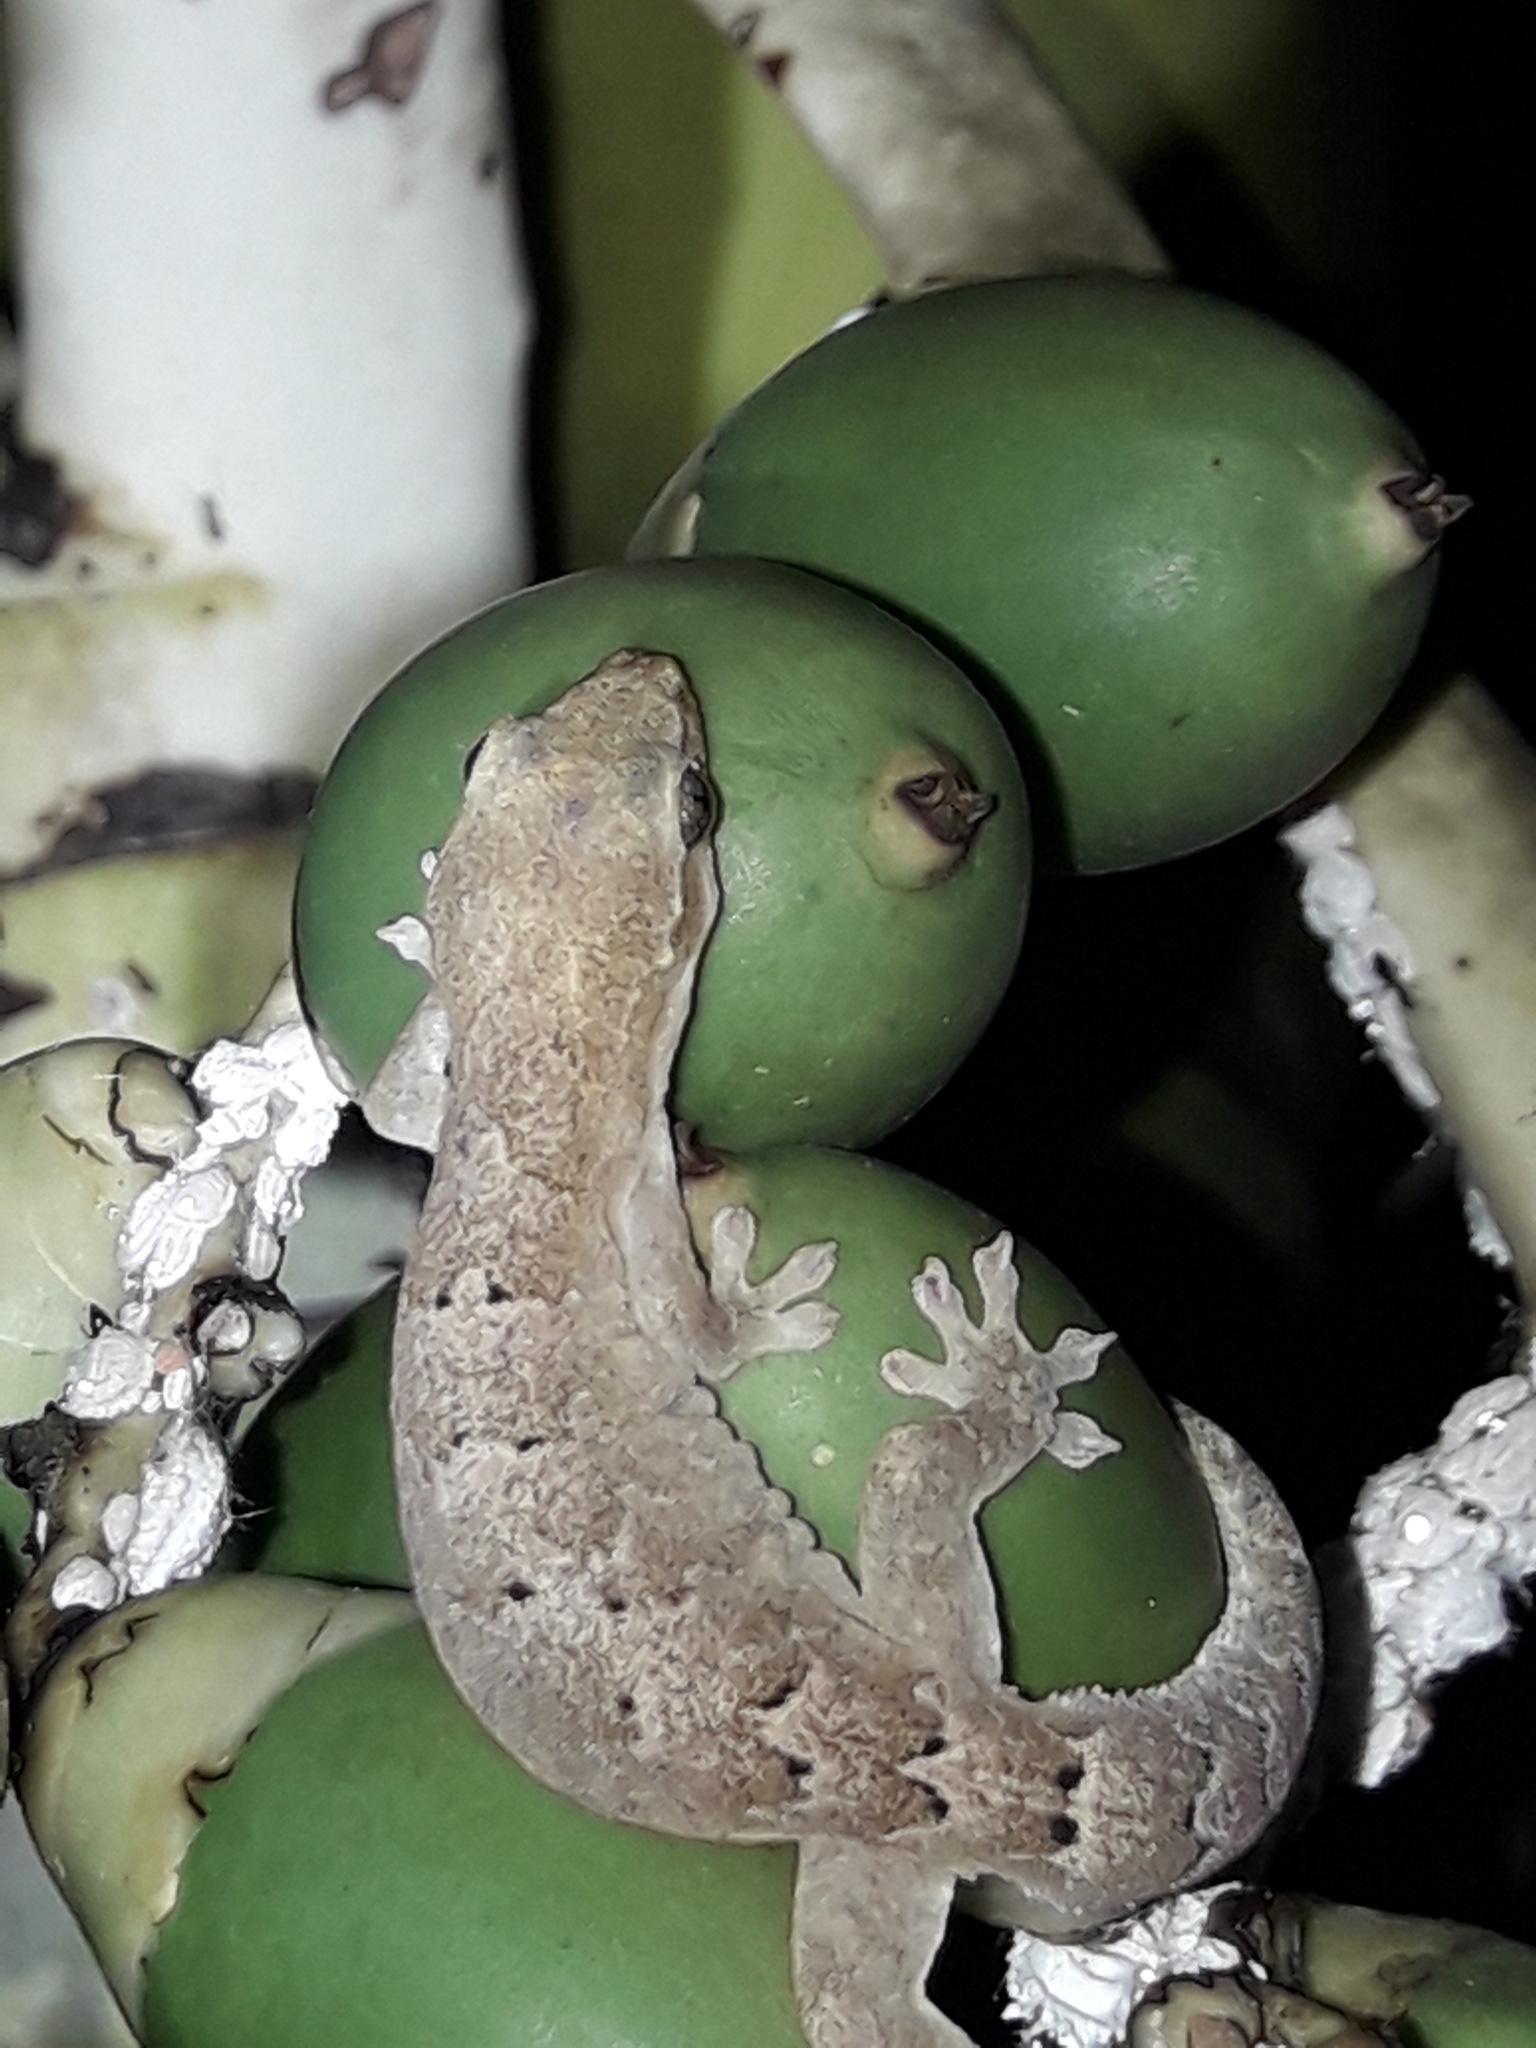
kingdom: Animalia
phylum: Chordata
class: Squamata
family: Gekkonidae
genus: Lepidodactylus
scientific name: Lepidodactylus lugubris
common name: Mourning gecko
